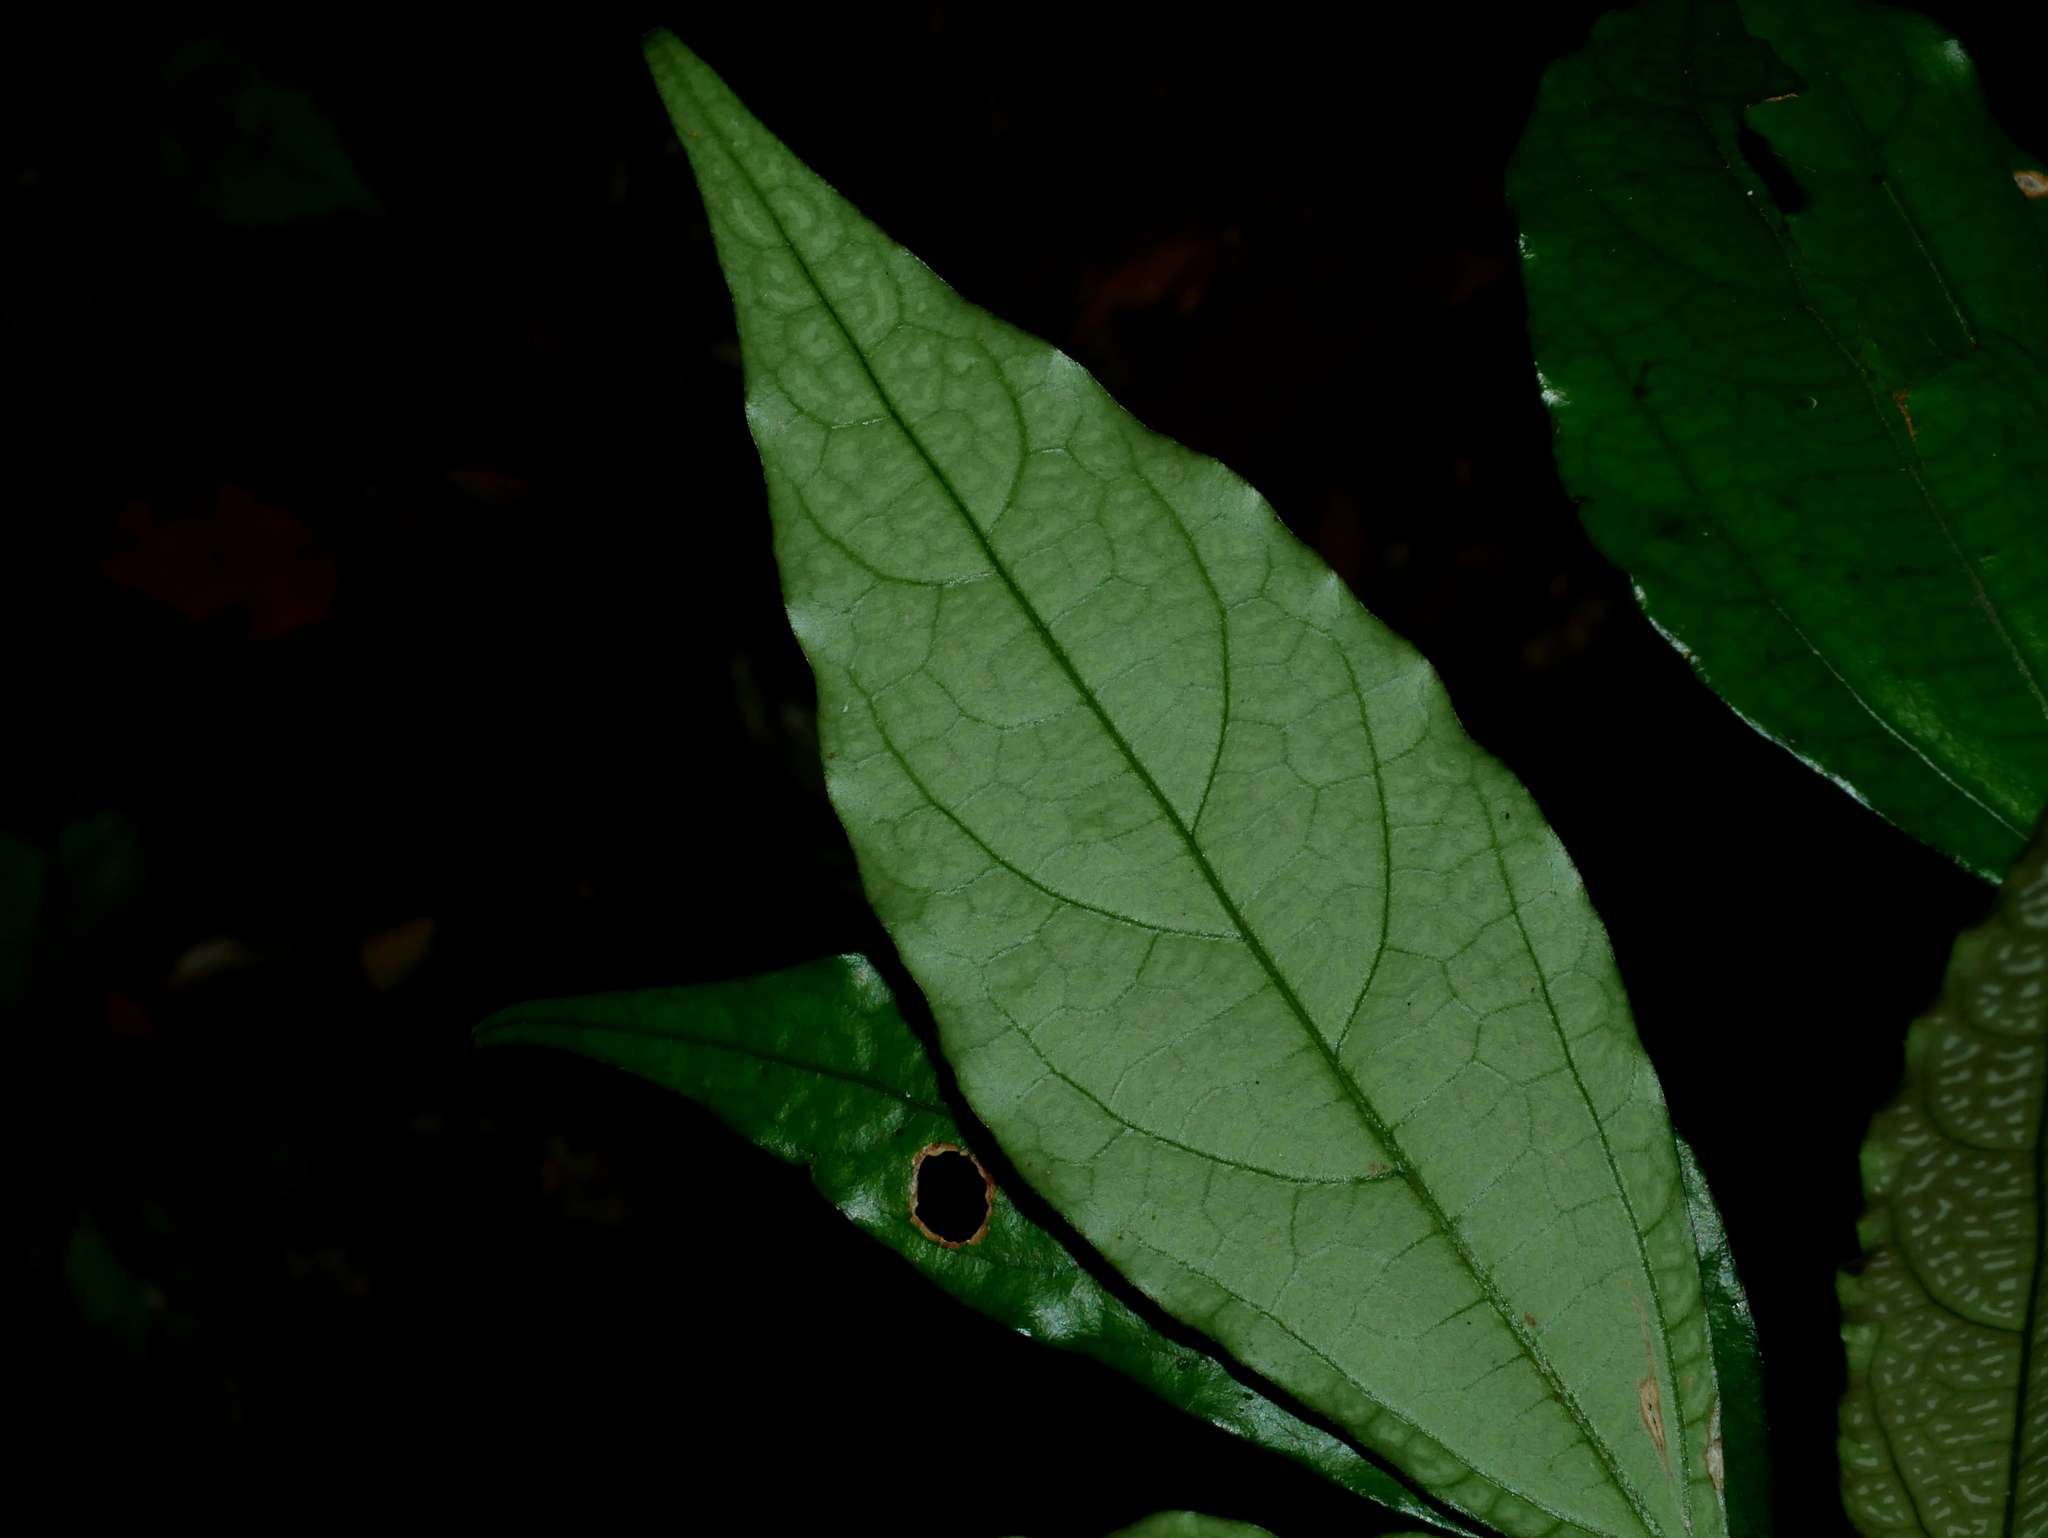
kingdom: Plantae
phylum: Tracheophyta
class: Magnoliopsida
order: Fabales
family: Fabaceae
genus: Hylodesmum
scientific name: Hylodesmum leptopus
